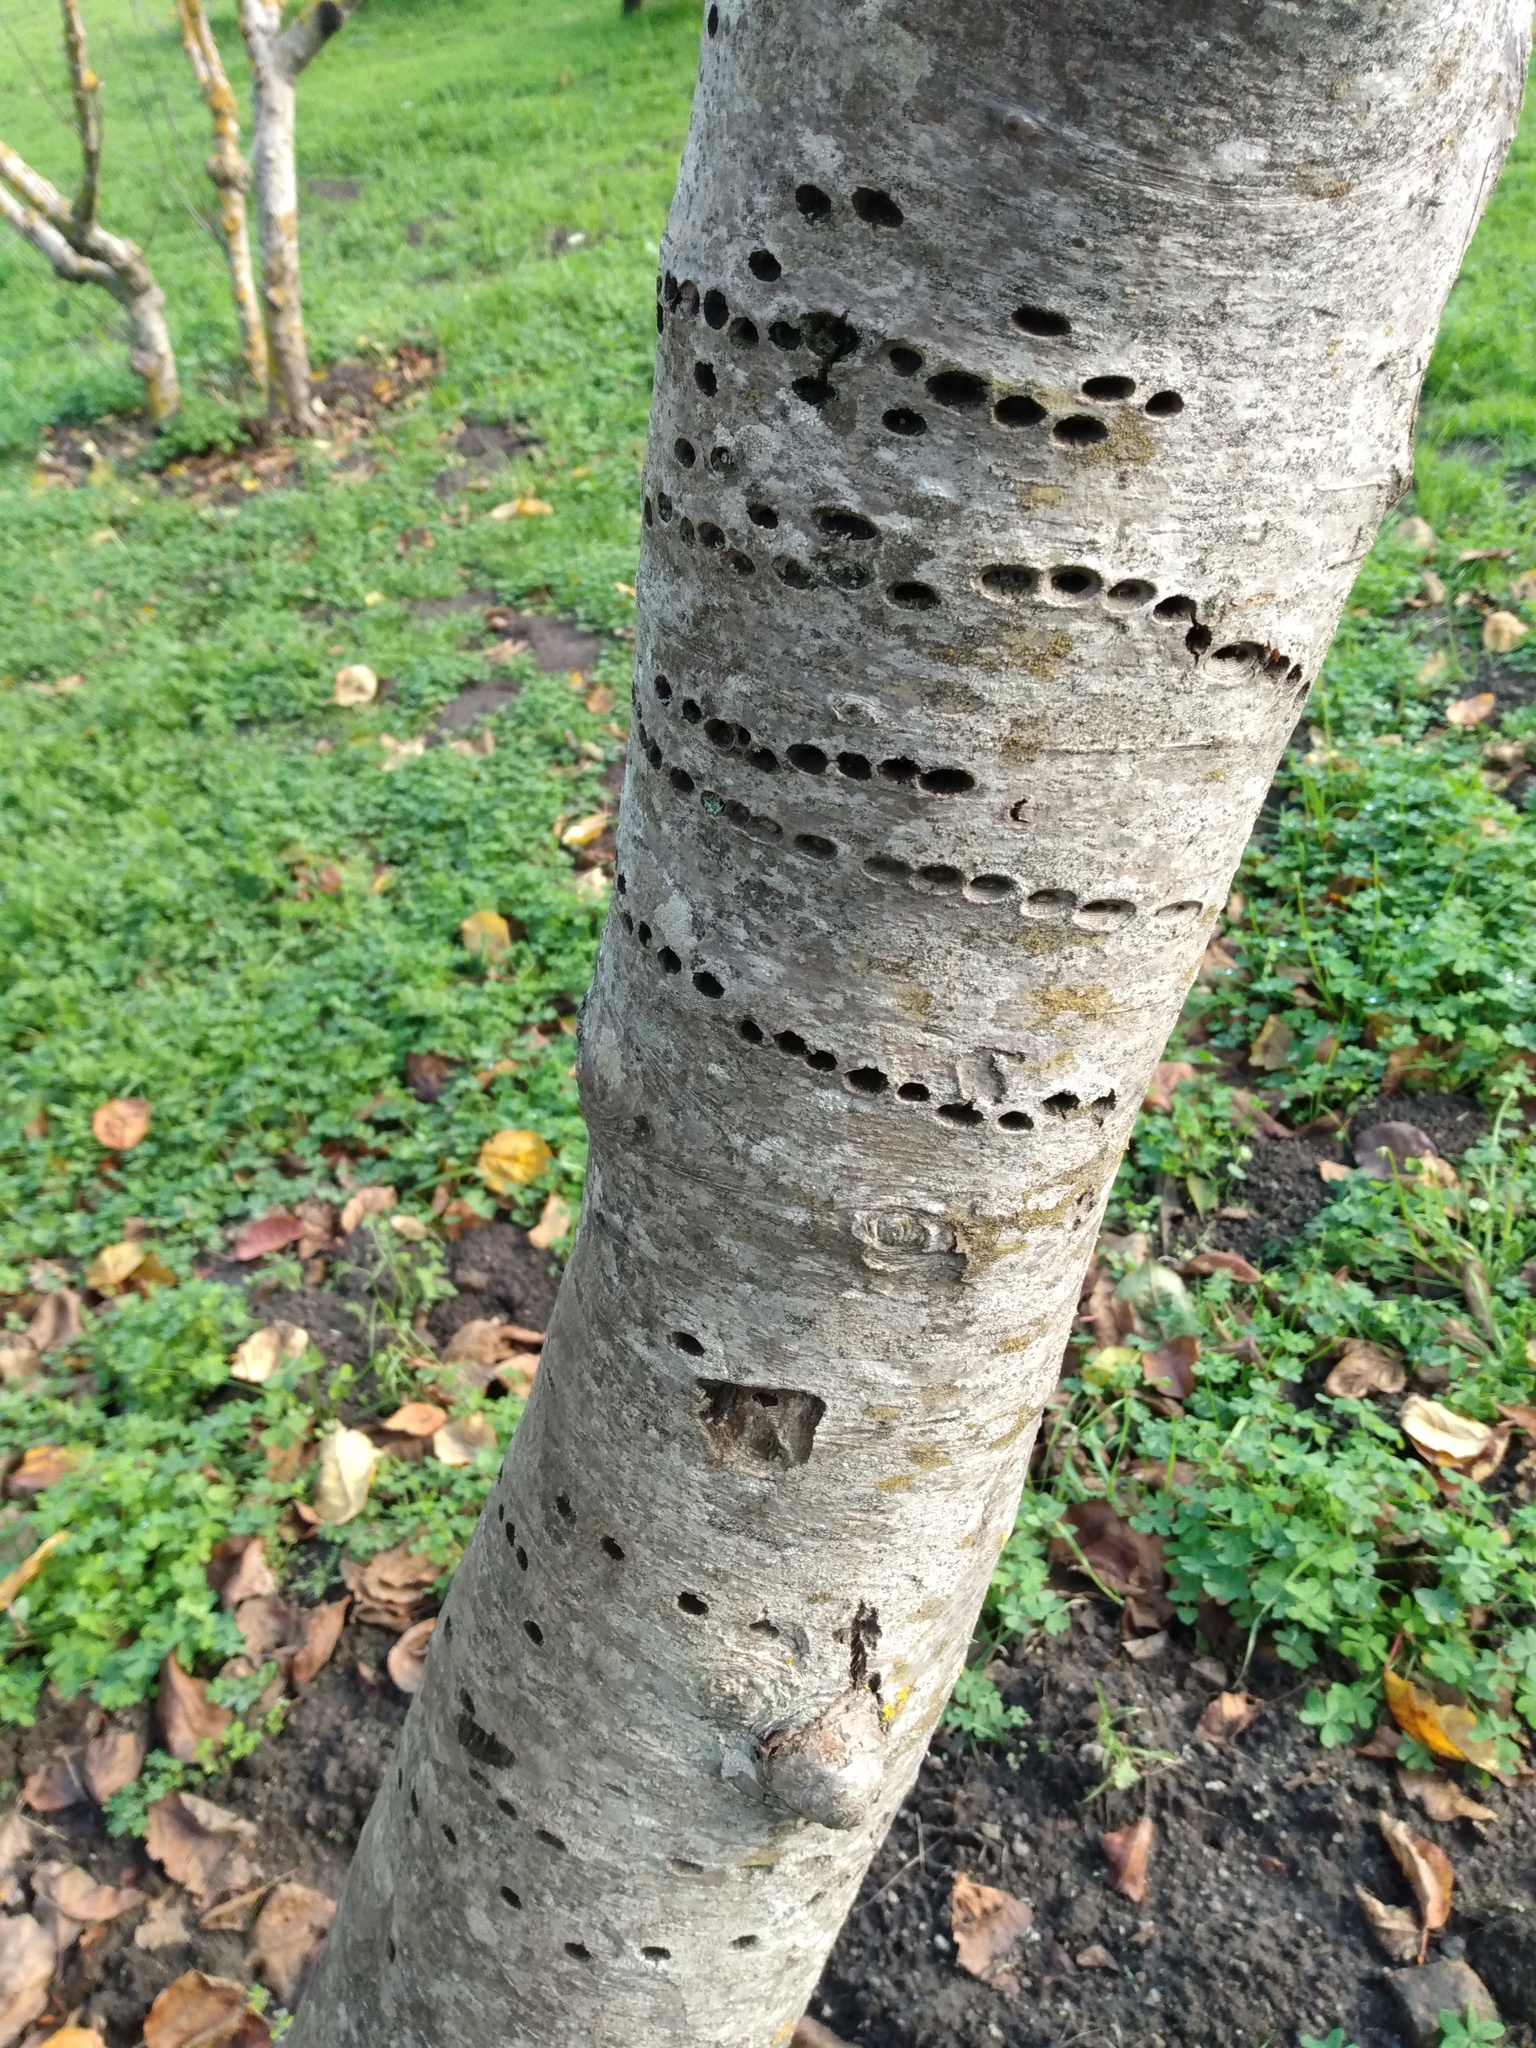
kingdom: Animalia
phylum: Chordata
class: Aves
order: Piciformes
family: Picidae
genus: Sphyrapicus
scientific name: Sphyrapicus
